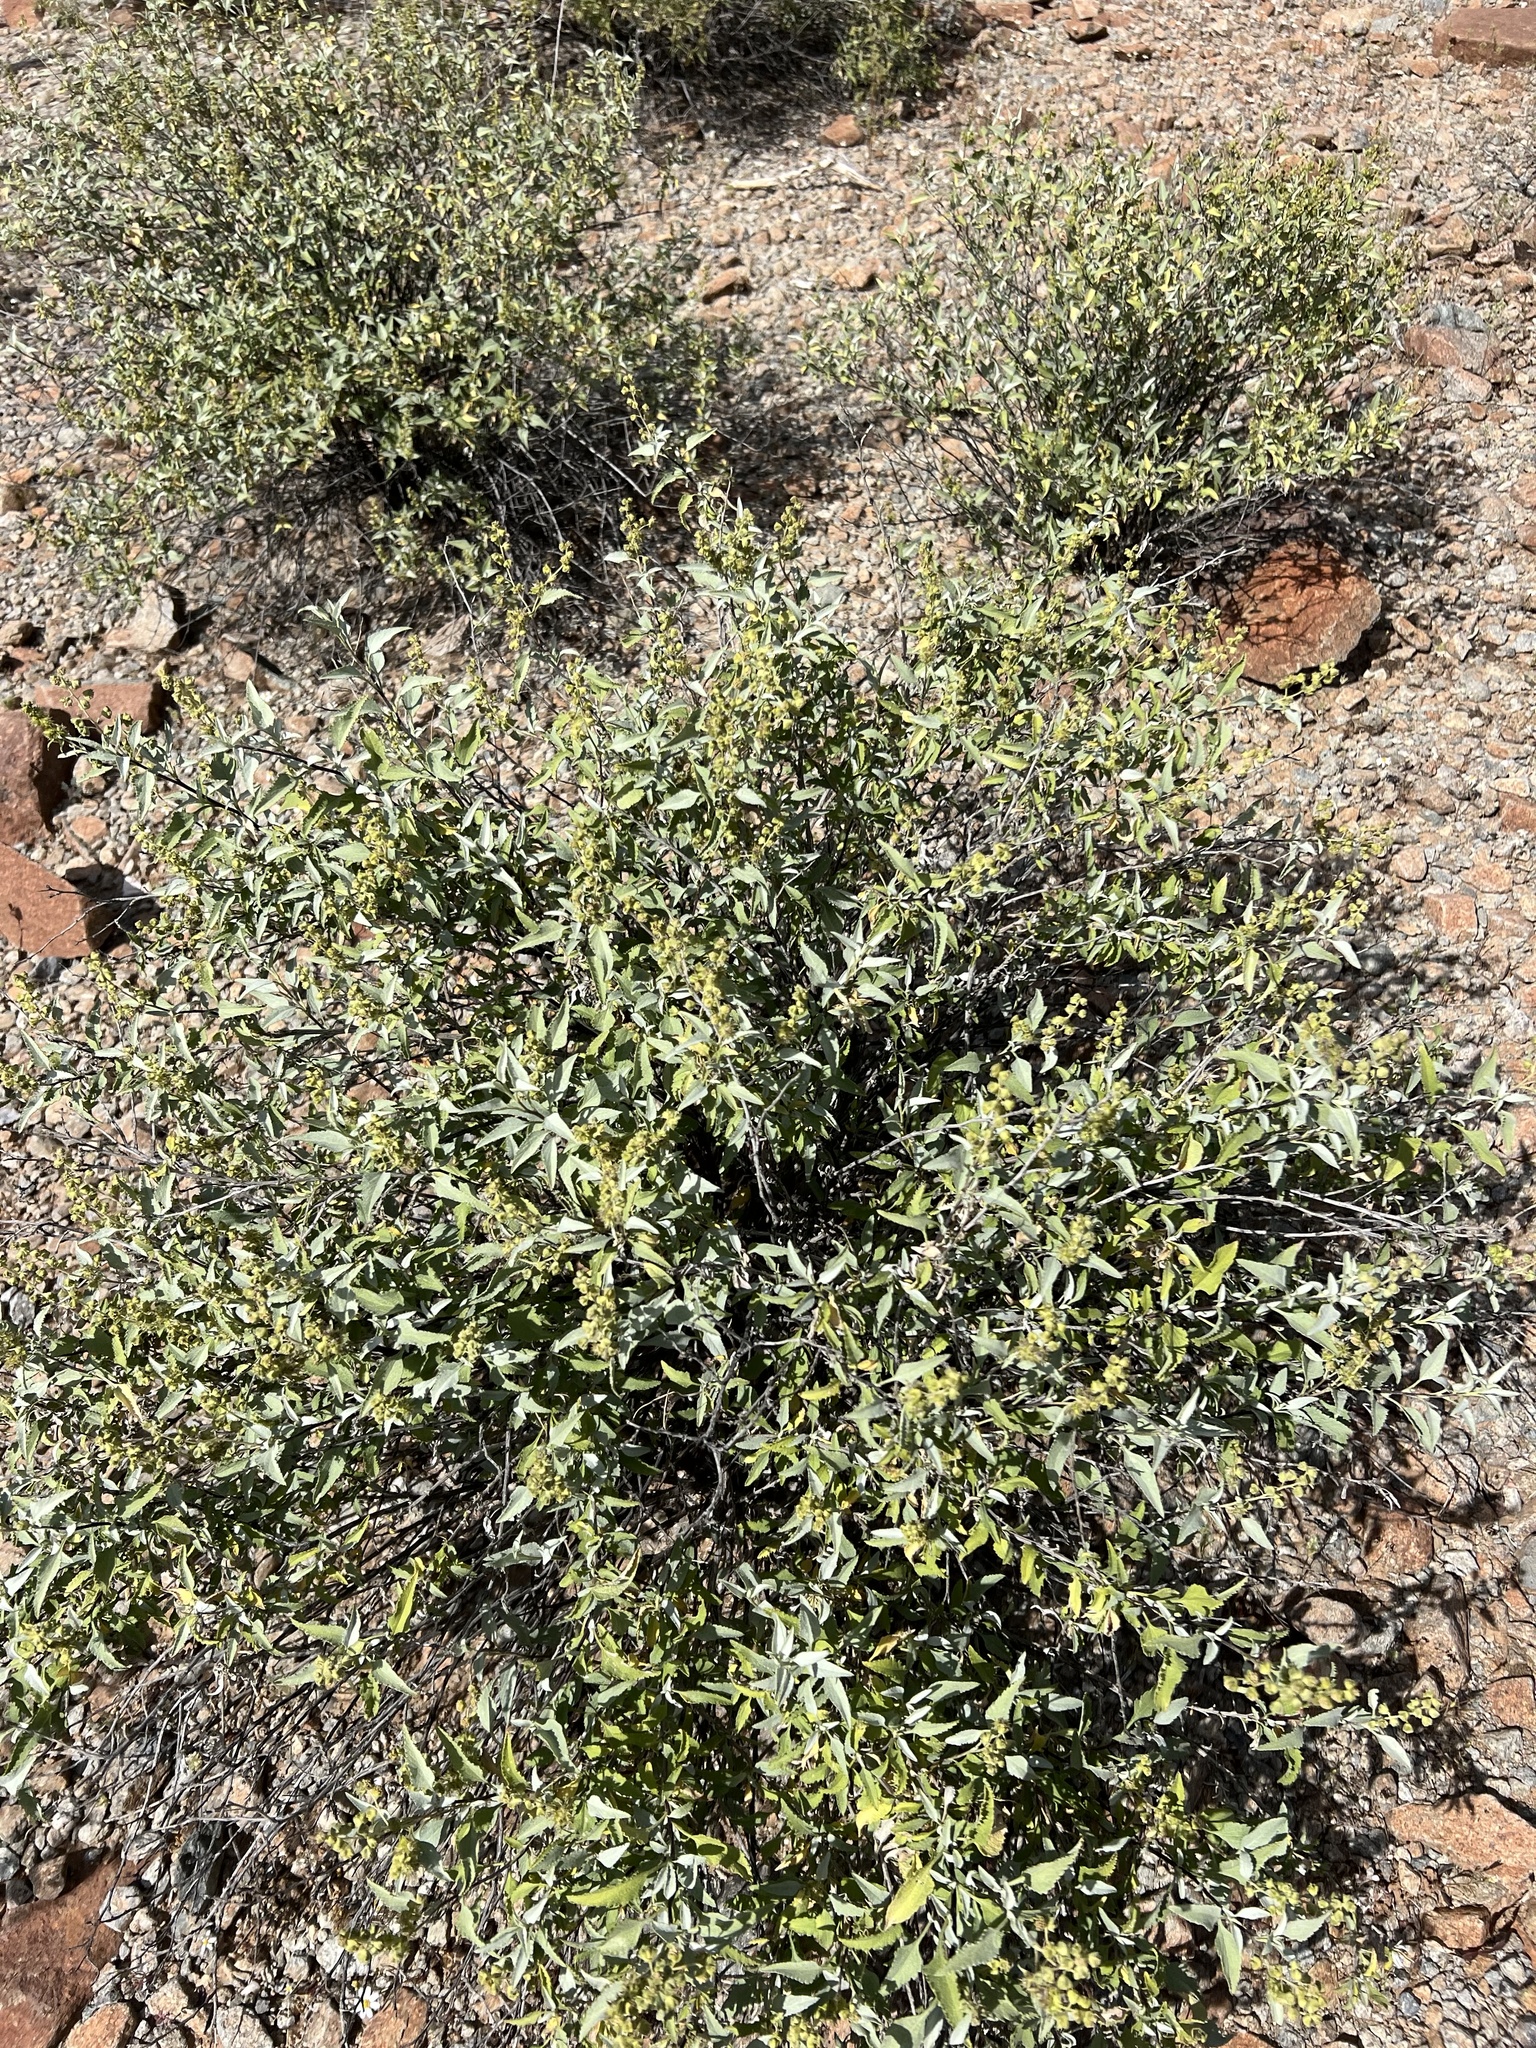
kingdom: Plantae
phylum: Tracheophyta
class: Magnoliopsida
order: Asterales
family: Asteraceae
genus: Ambrosia
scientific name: Ambrosia deltoidea
